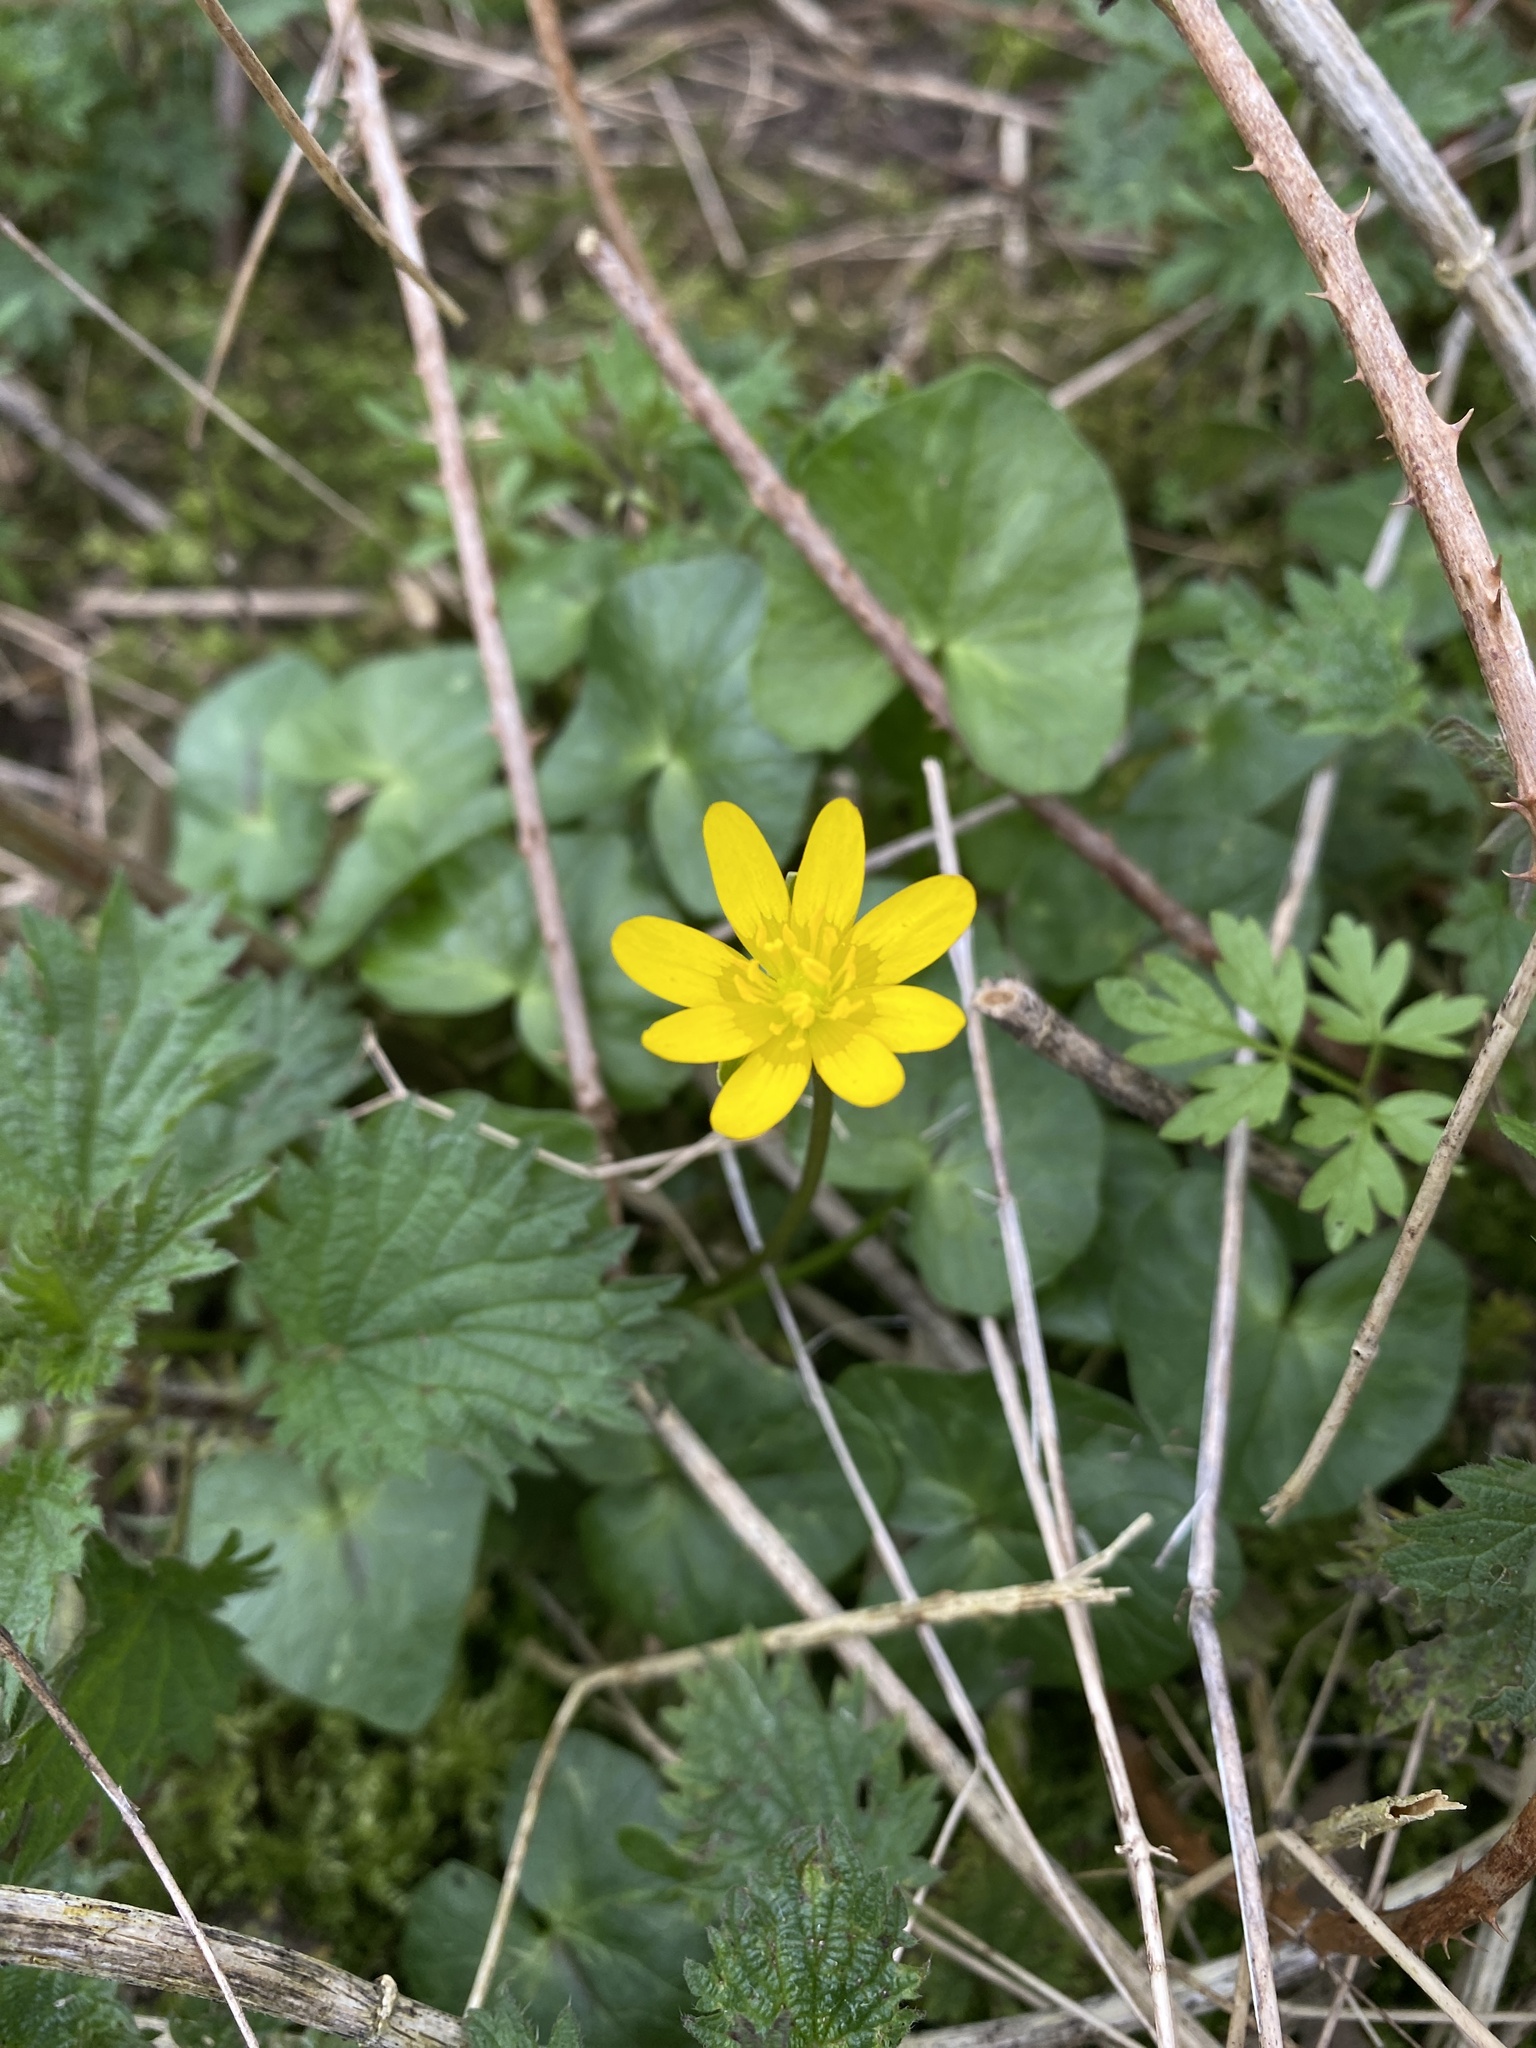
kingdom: Plantae
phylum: Tracheophyta
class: Magnoliopsida
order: Ranunculales
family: Ranunculaceae
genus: Ficaria
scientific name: Ficaria verna
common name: Lesser celandine
